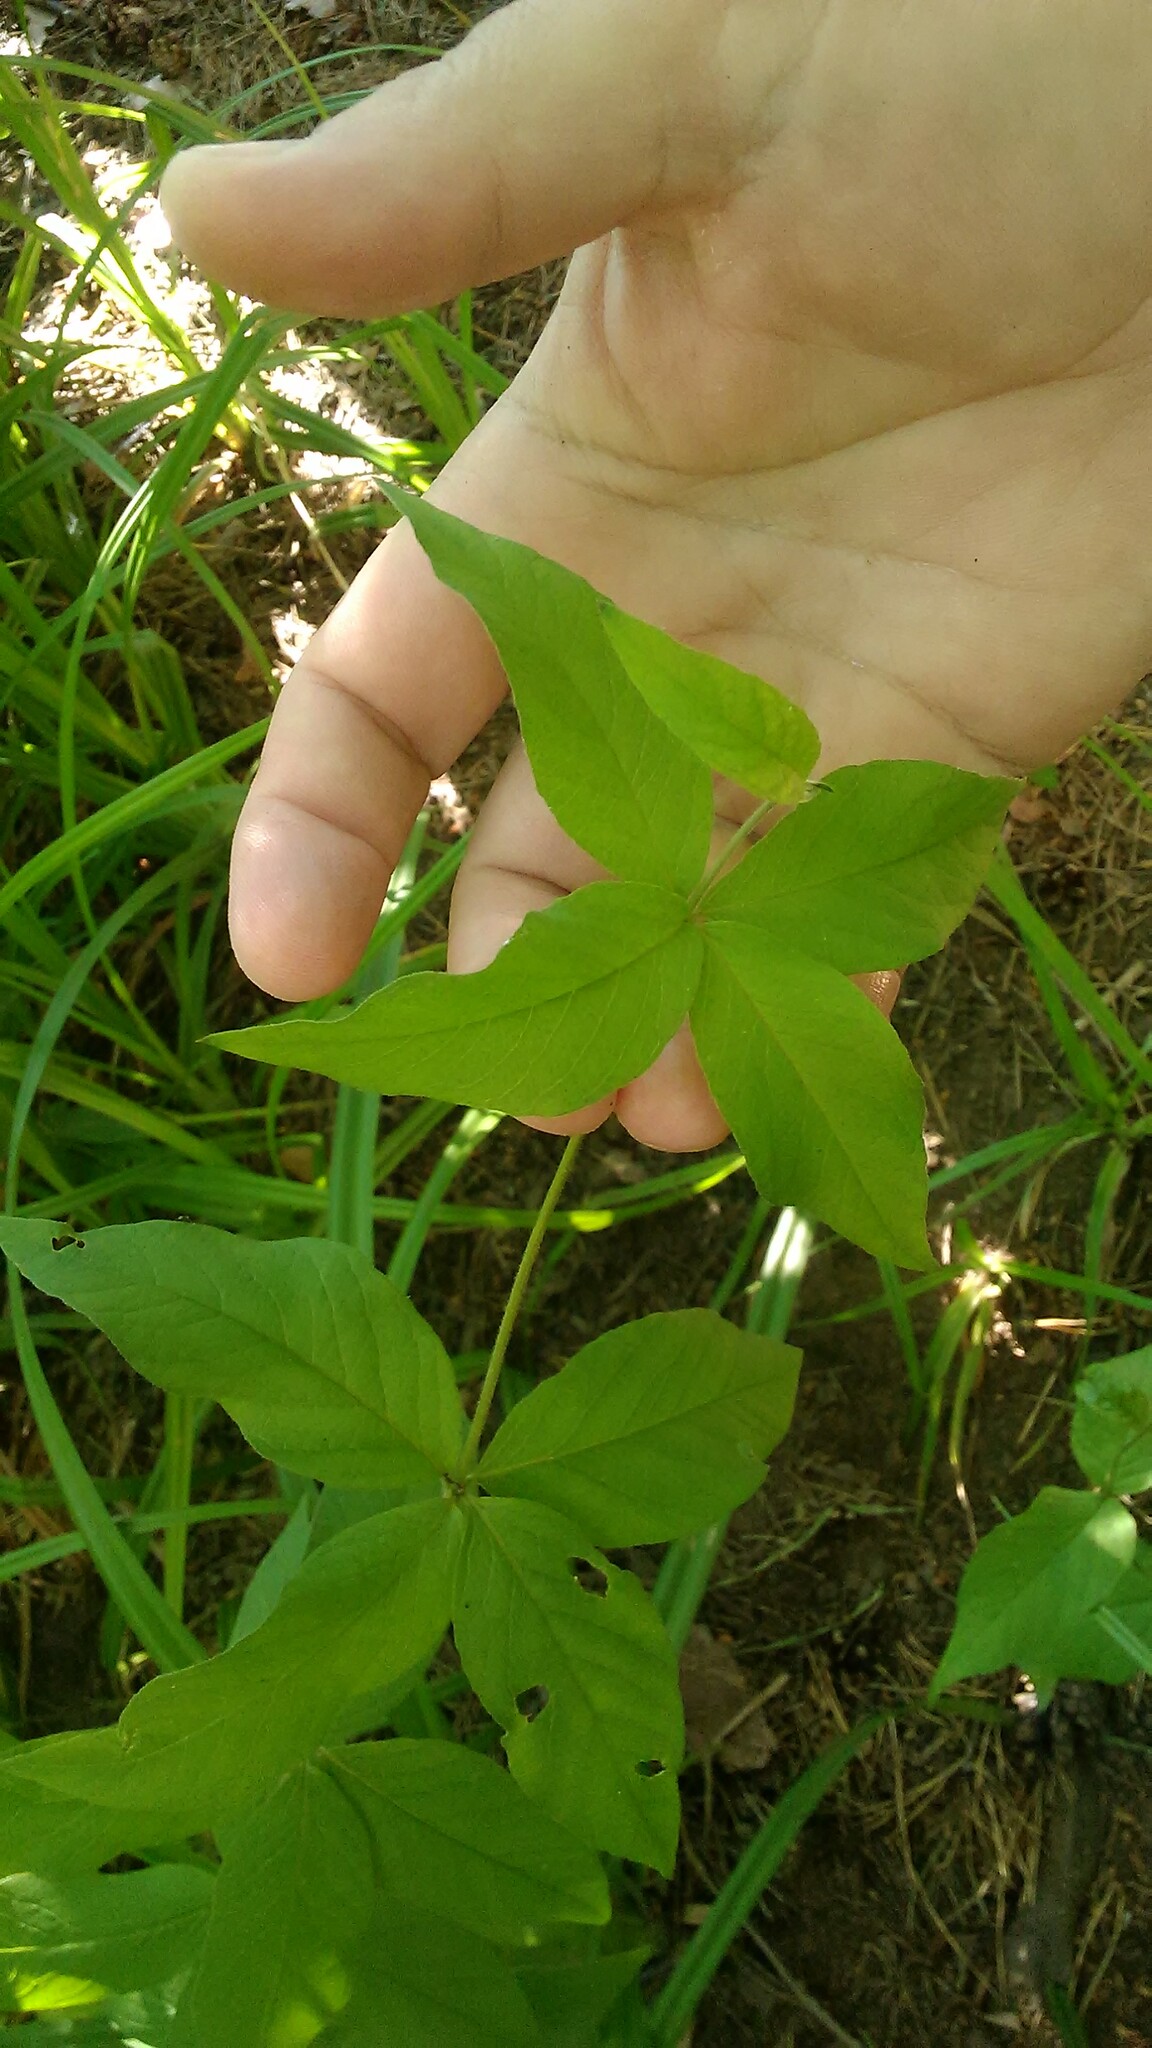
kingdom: Plantae
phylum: Tracheophyta
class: Magnoliopsida
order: Ericales
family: Primulaceae
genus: Lysimachia
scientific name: Lysimachia vulgaris
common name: Yellow loosestrife
